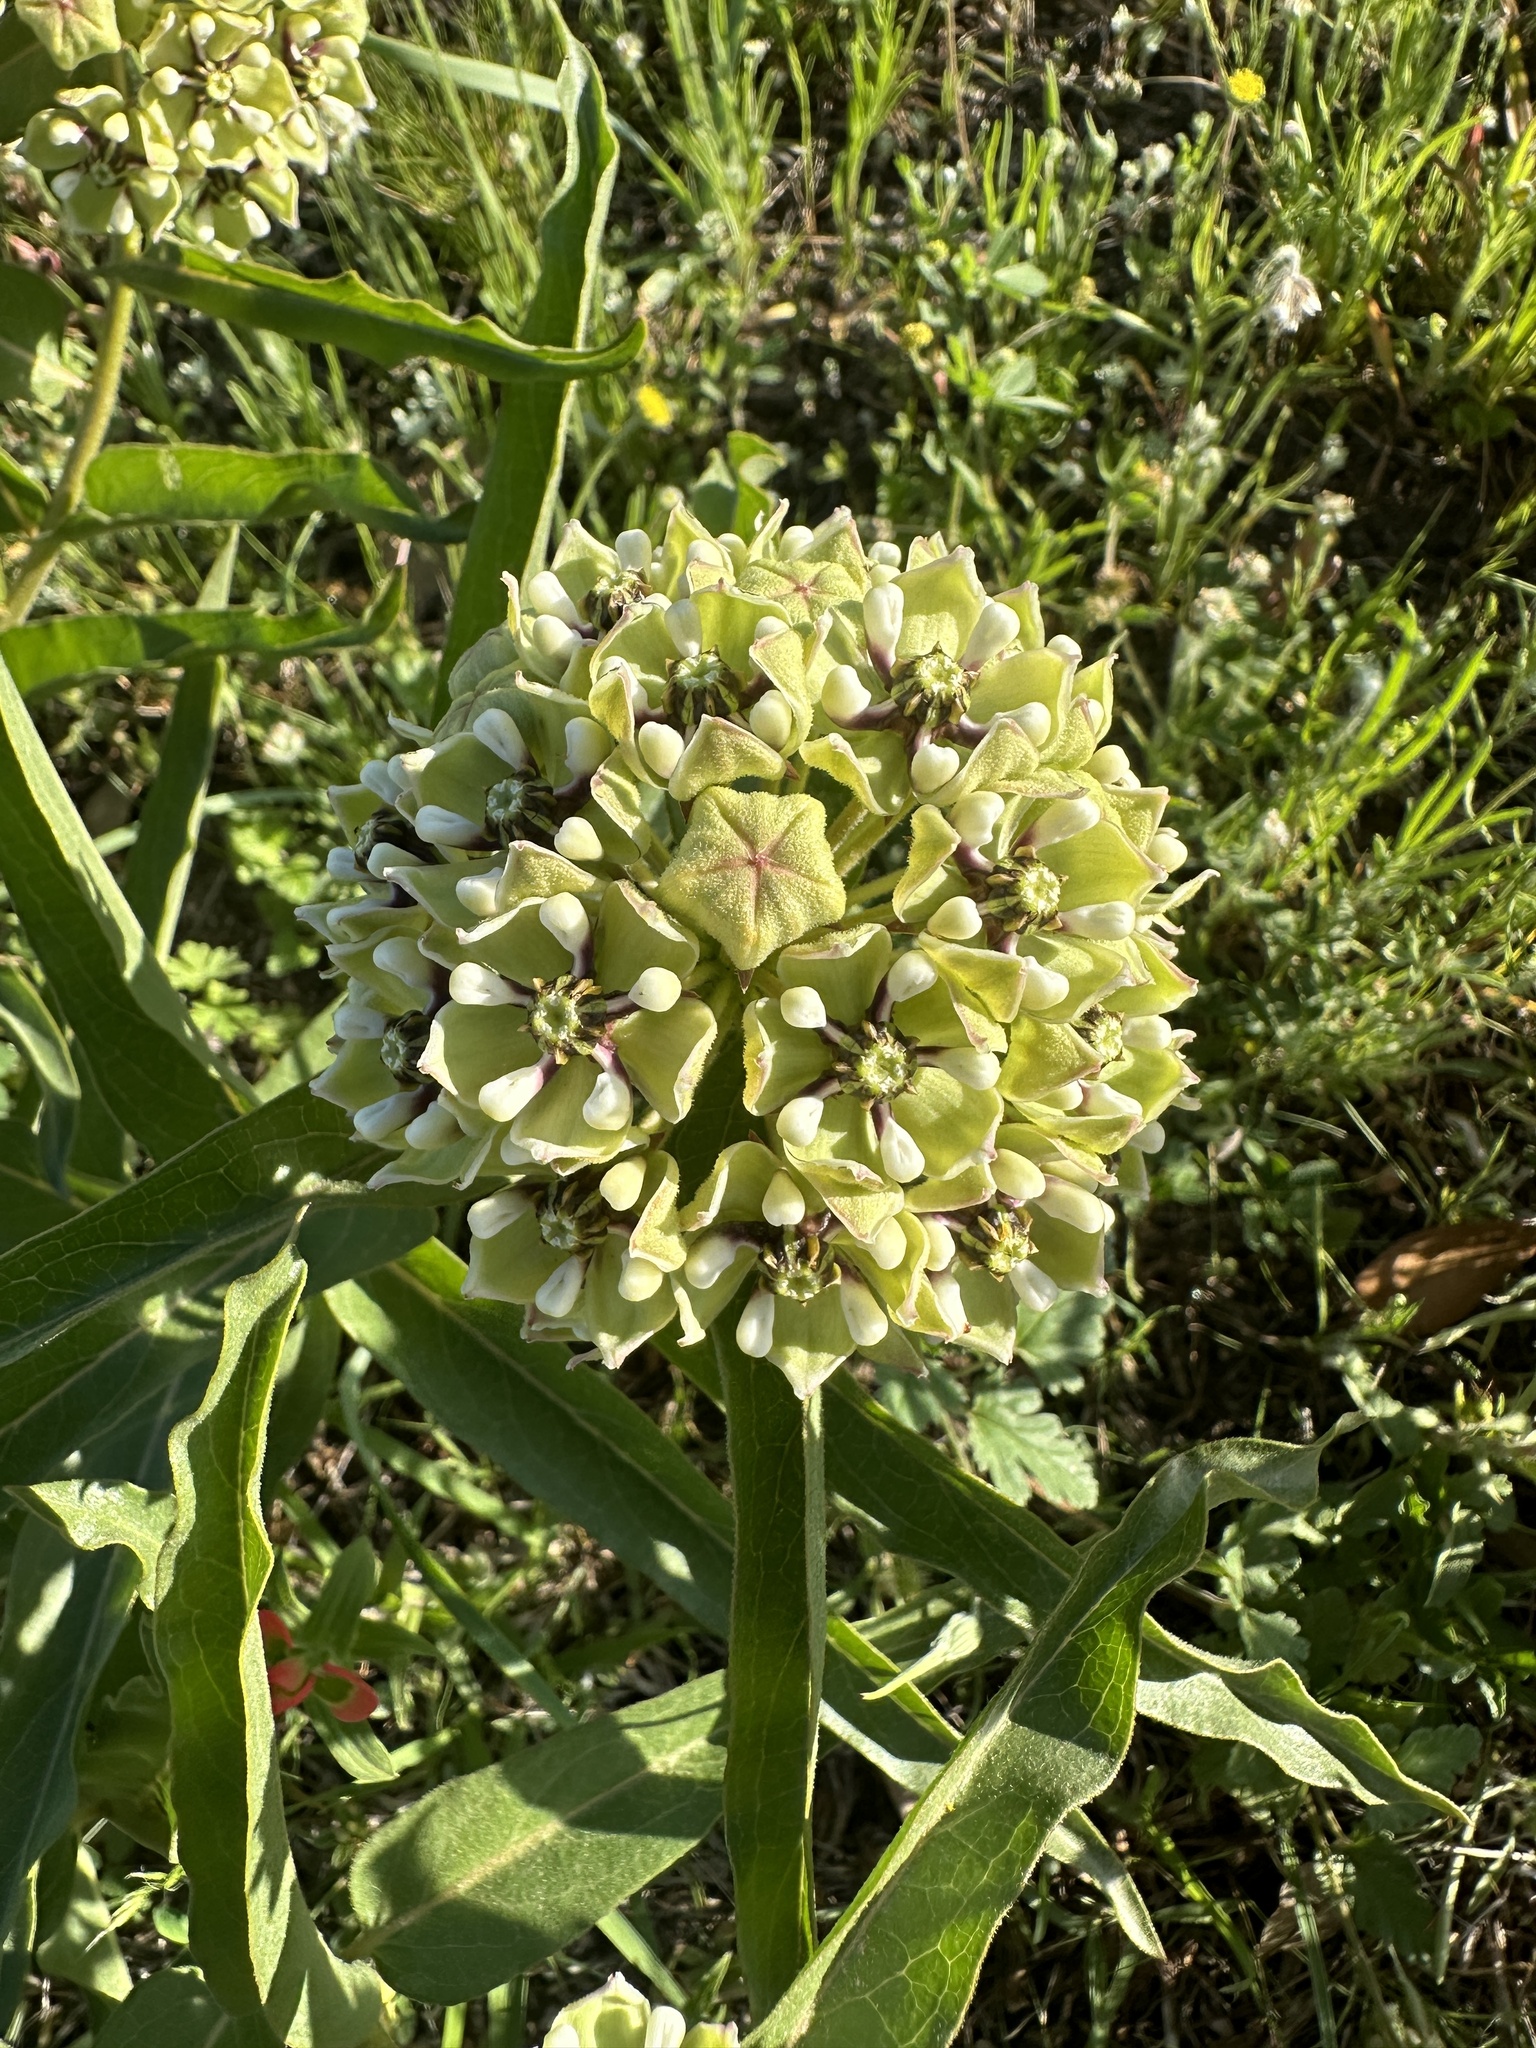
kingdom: Plantae
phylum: Tracheophyta
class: Magnoliopsida
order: Gentianales
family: Apocynaceae
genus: Asclepias
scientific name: Asclepias asperula
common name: Antelope horns
